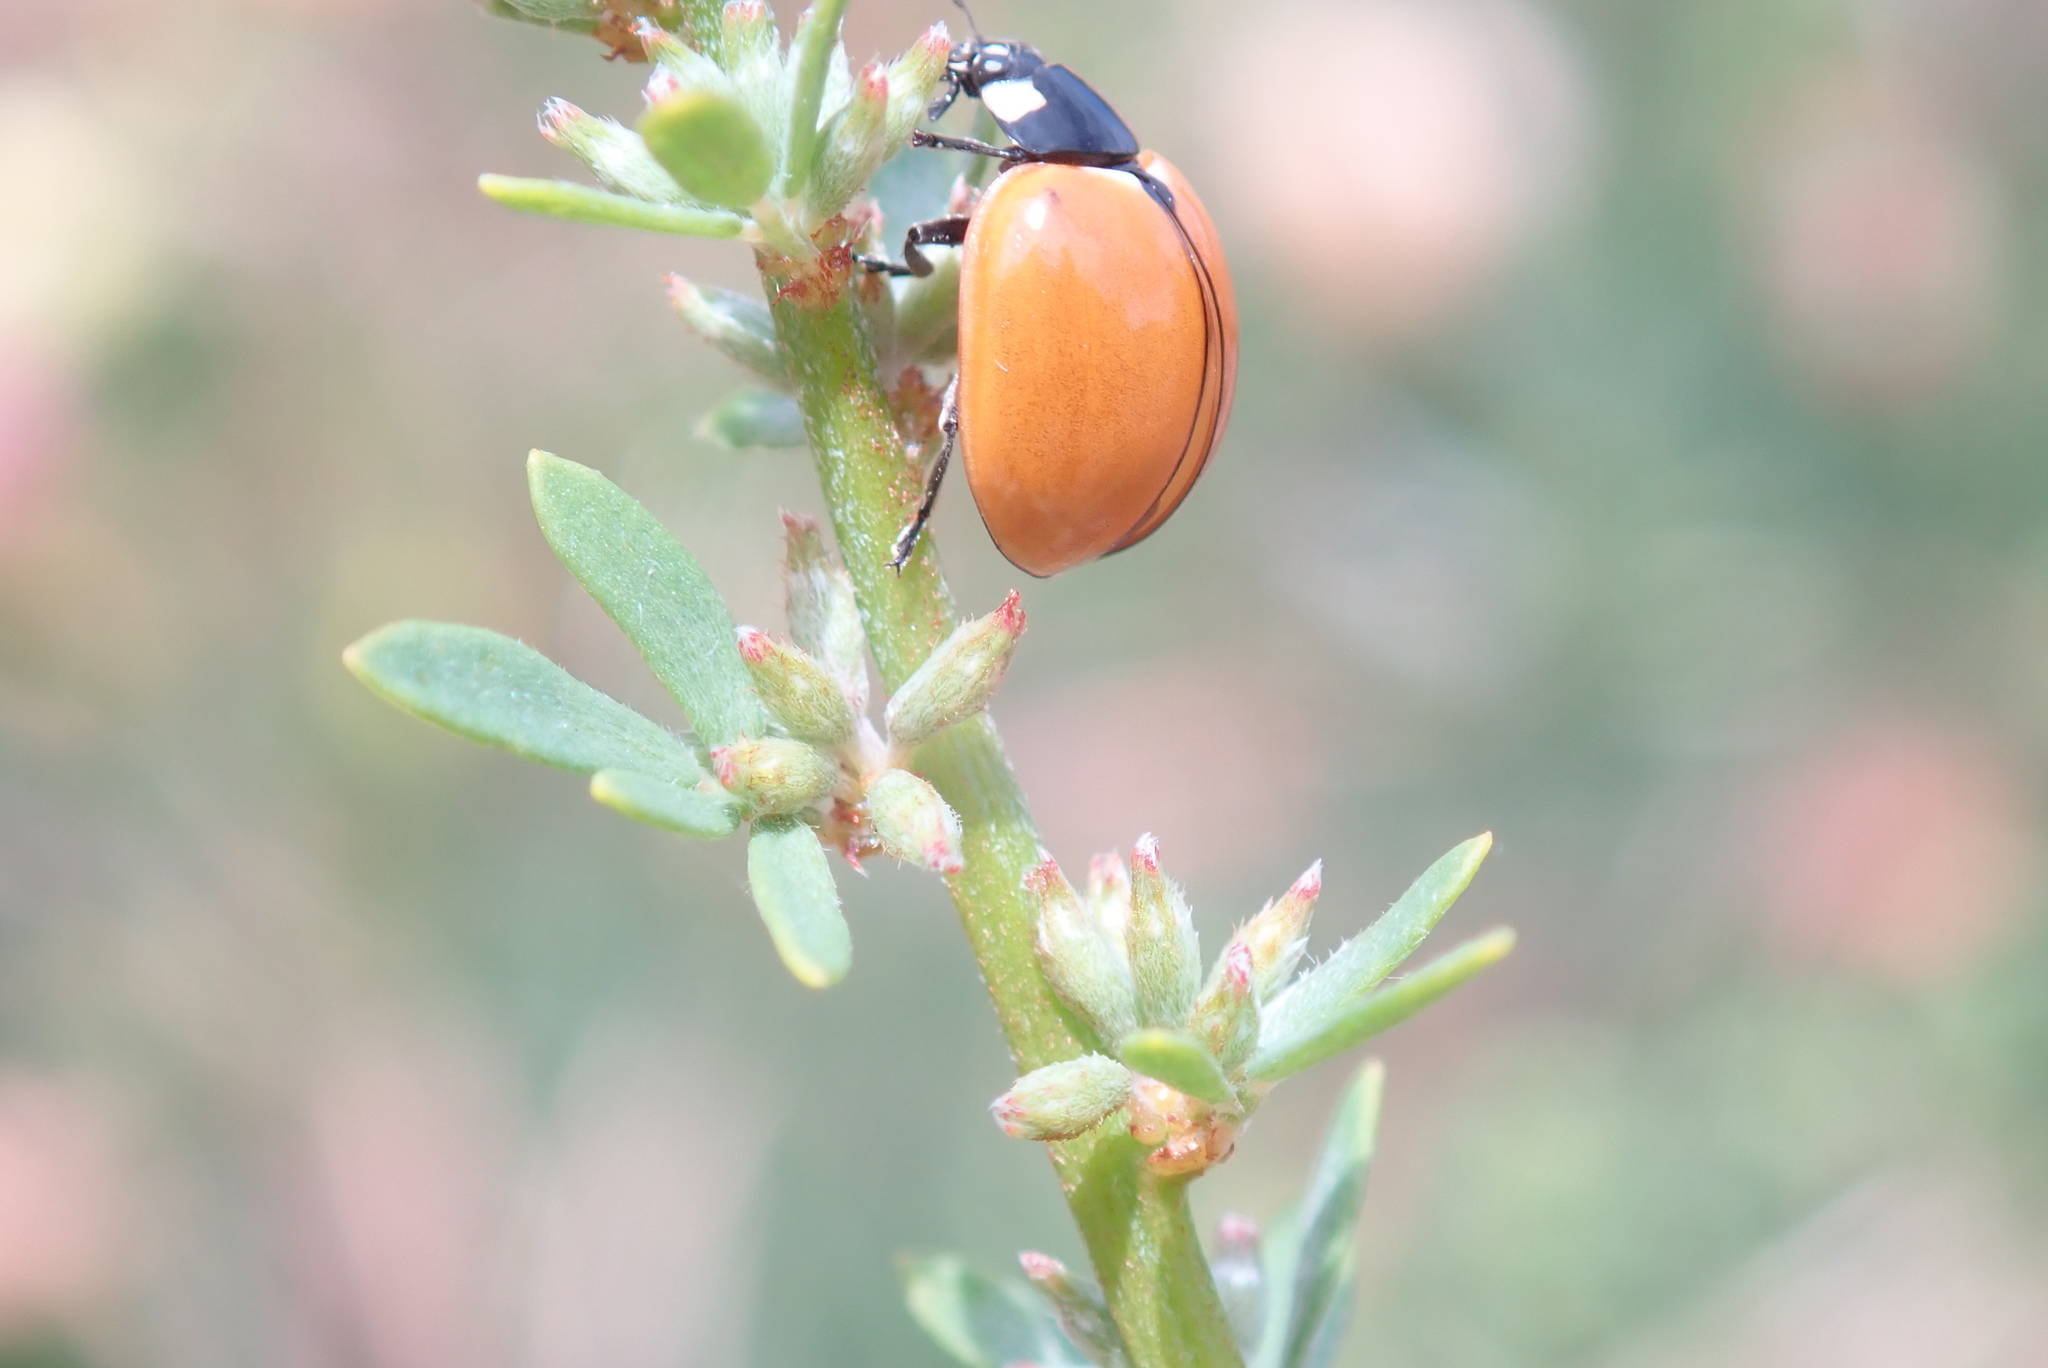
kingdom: Animalia
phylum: Arthropoda
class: Insecta
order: Coleoptera
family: Coccinellidae
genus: Coccinella
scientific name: Coccinella californica
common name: Lady beetle
